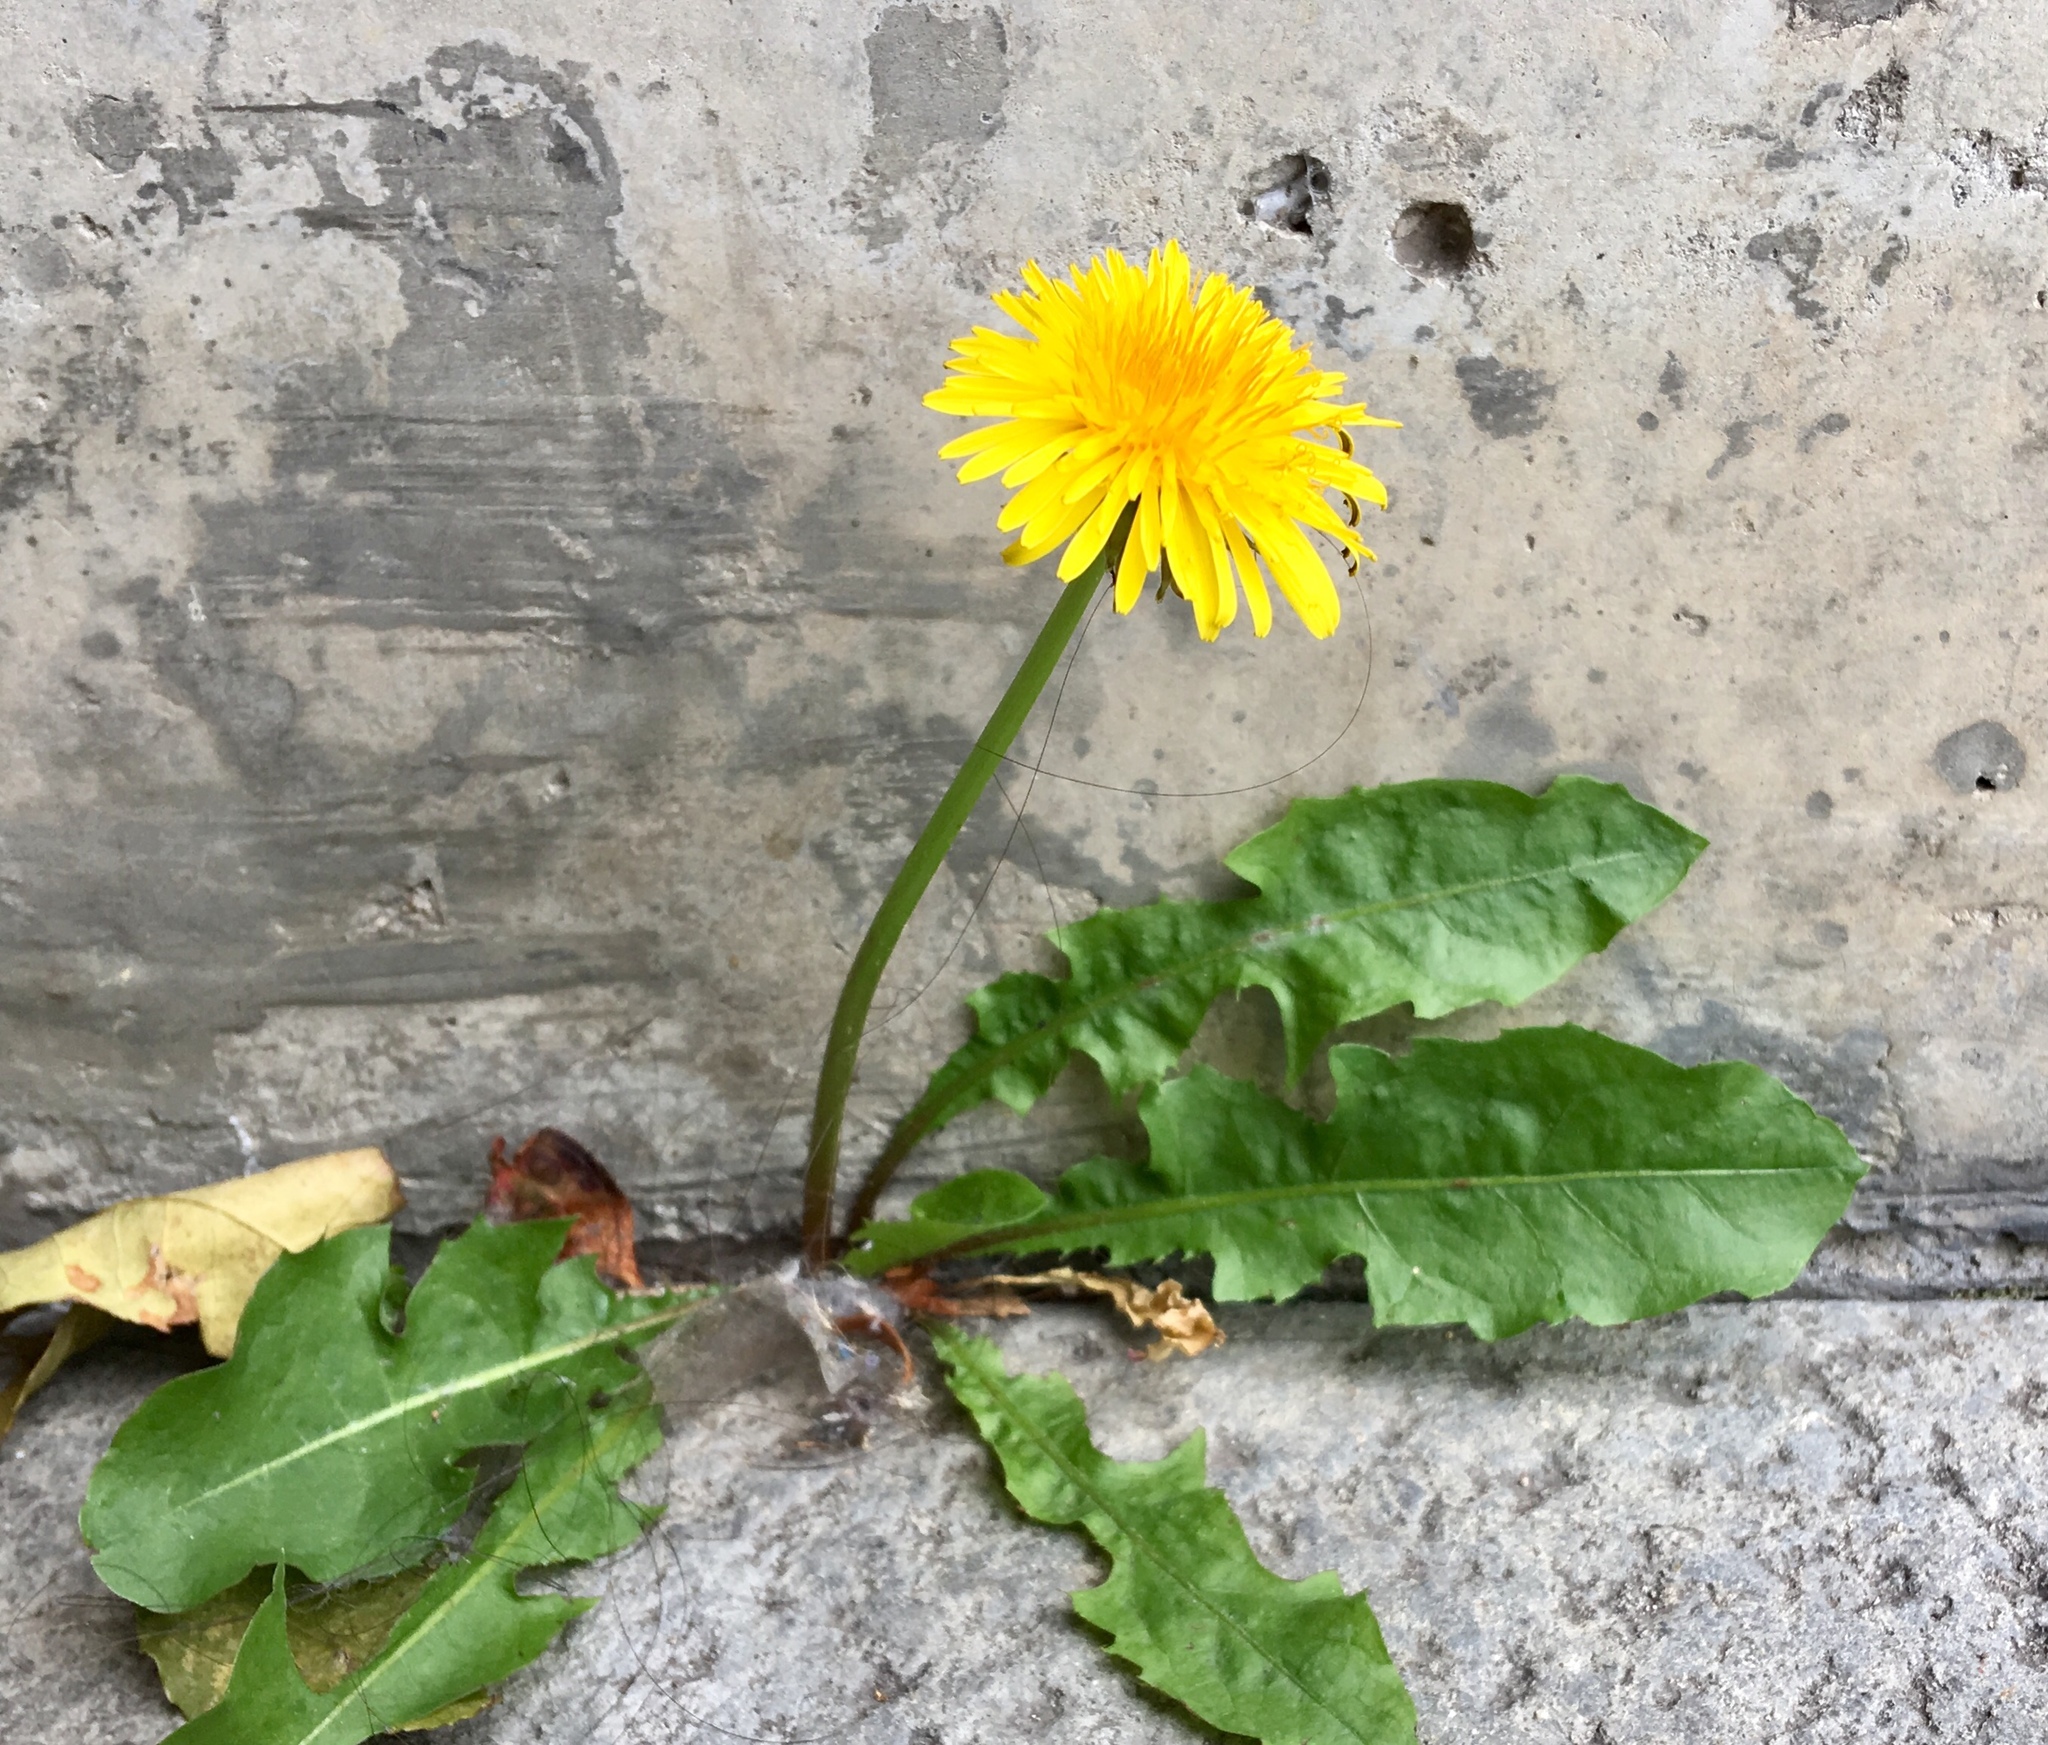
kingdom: Plantae
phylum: Tracheophyta
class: Magnoliopsida
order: Asterales
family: Asteraceae
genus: Taraxacum
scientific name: Taraxacum officinale
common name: Common dandelion
